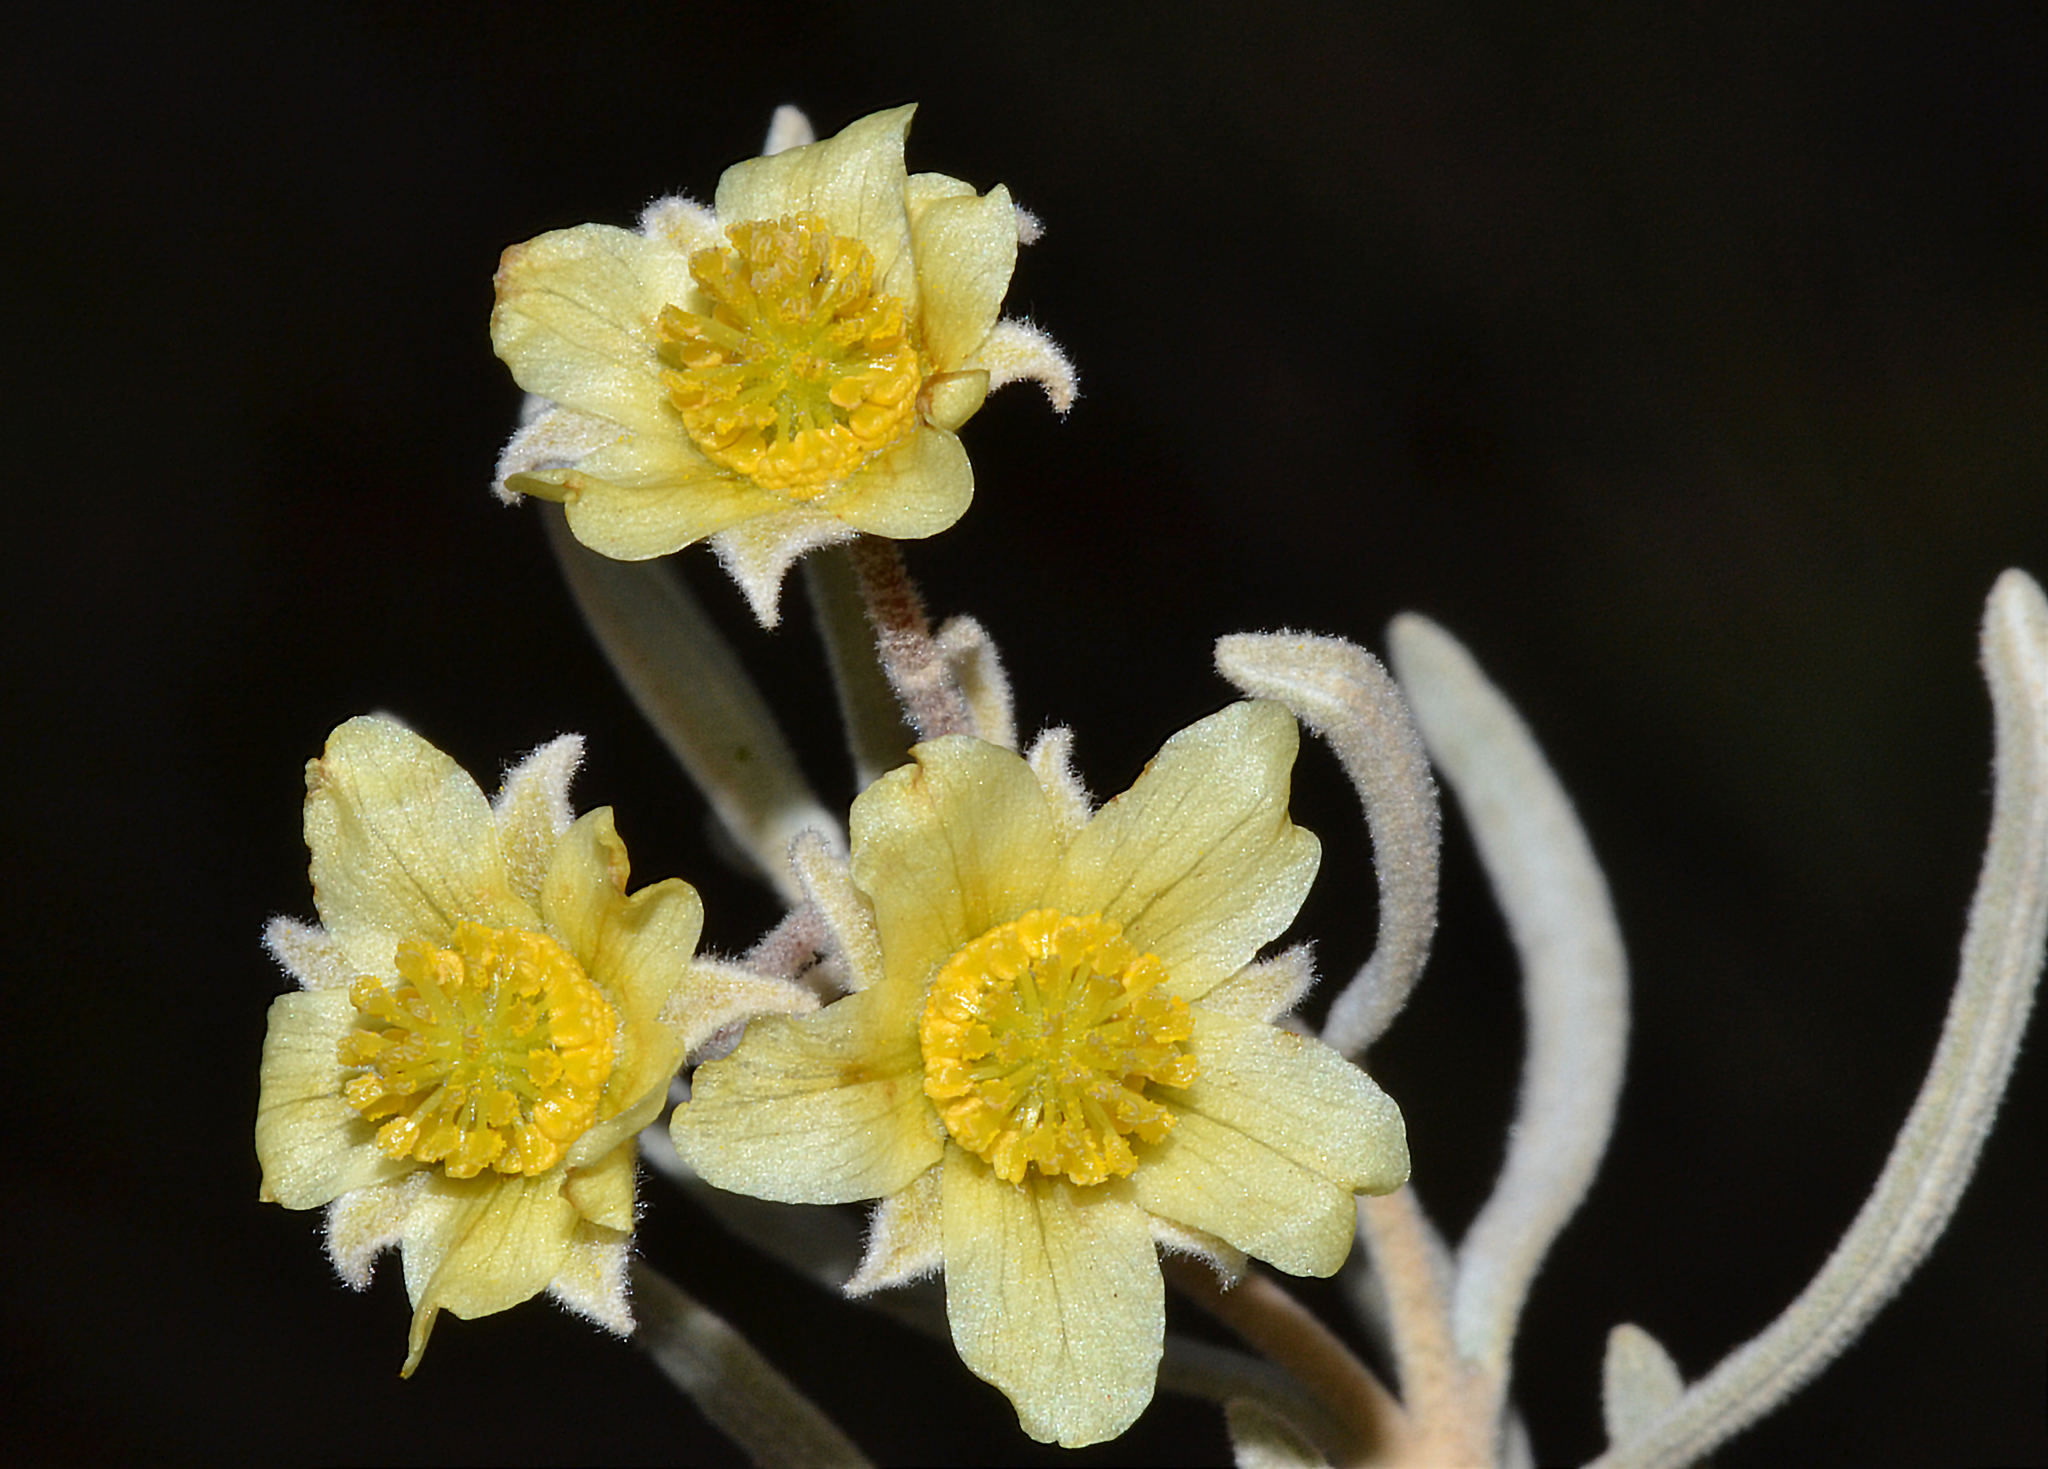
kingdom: Plantae
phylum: Tracheophyta
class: Magnoliopsida
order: Malpighiales
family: Euphorbiaceae
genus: Ricinocarpos
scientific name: Ricinocarpos velutinus
